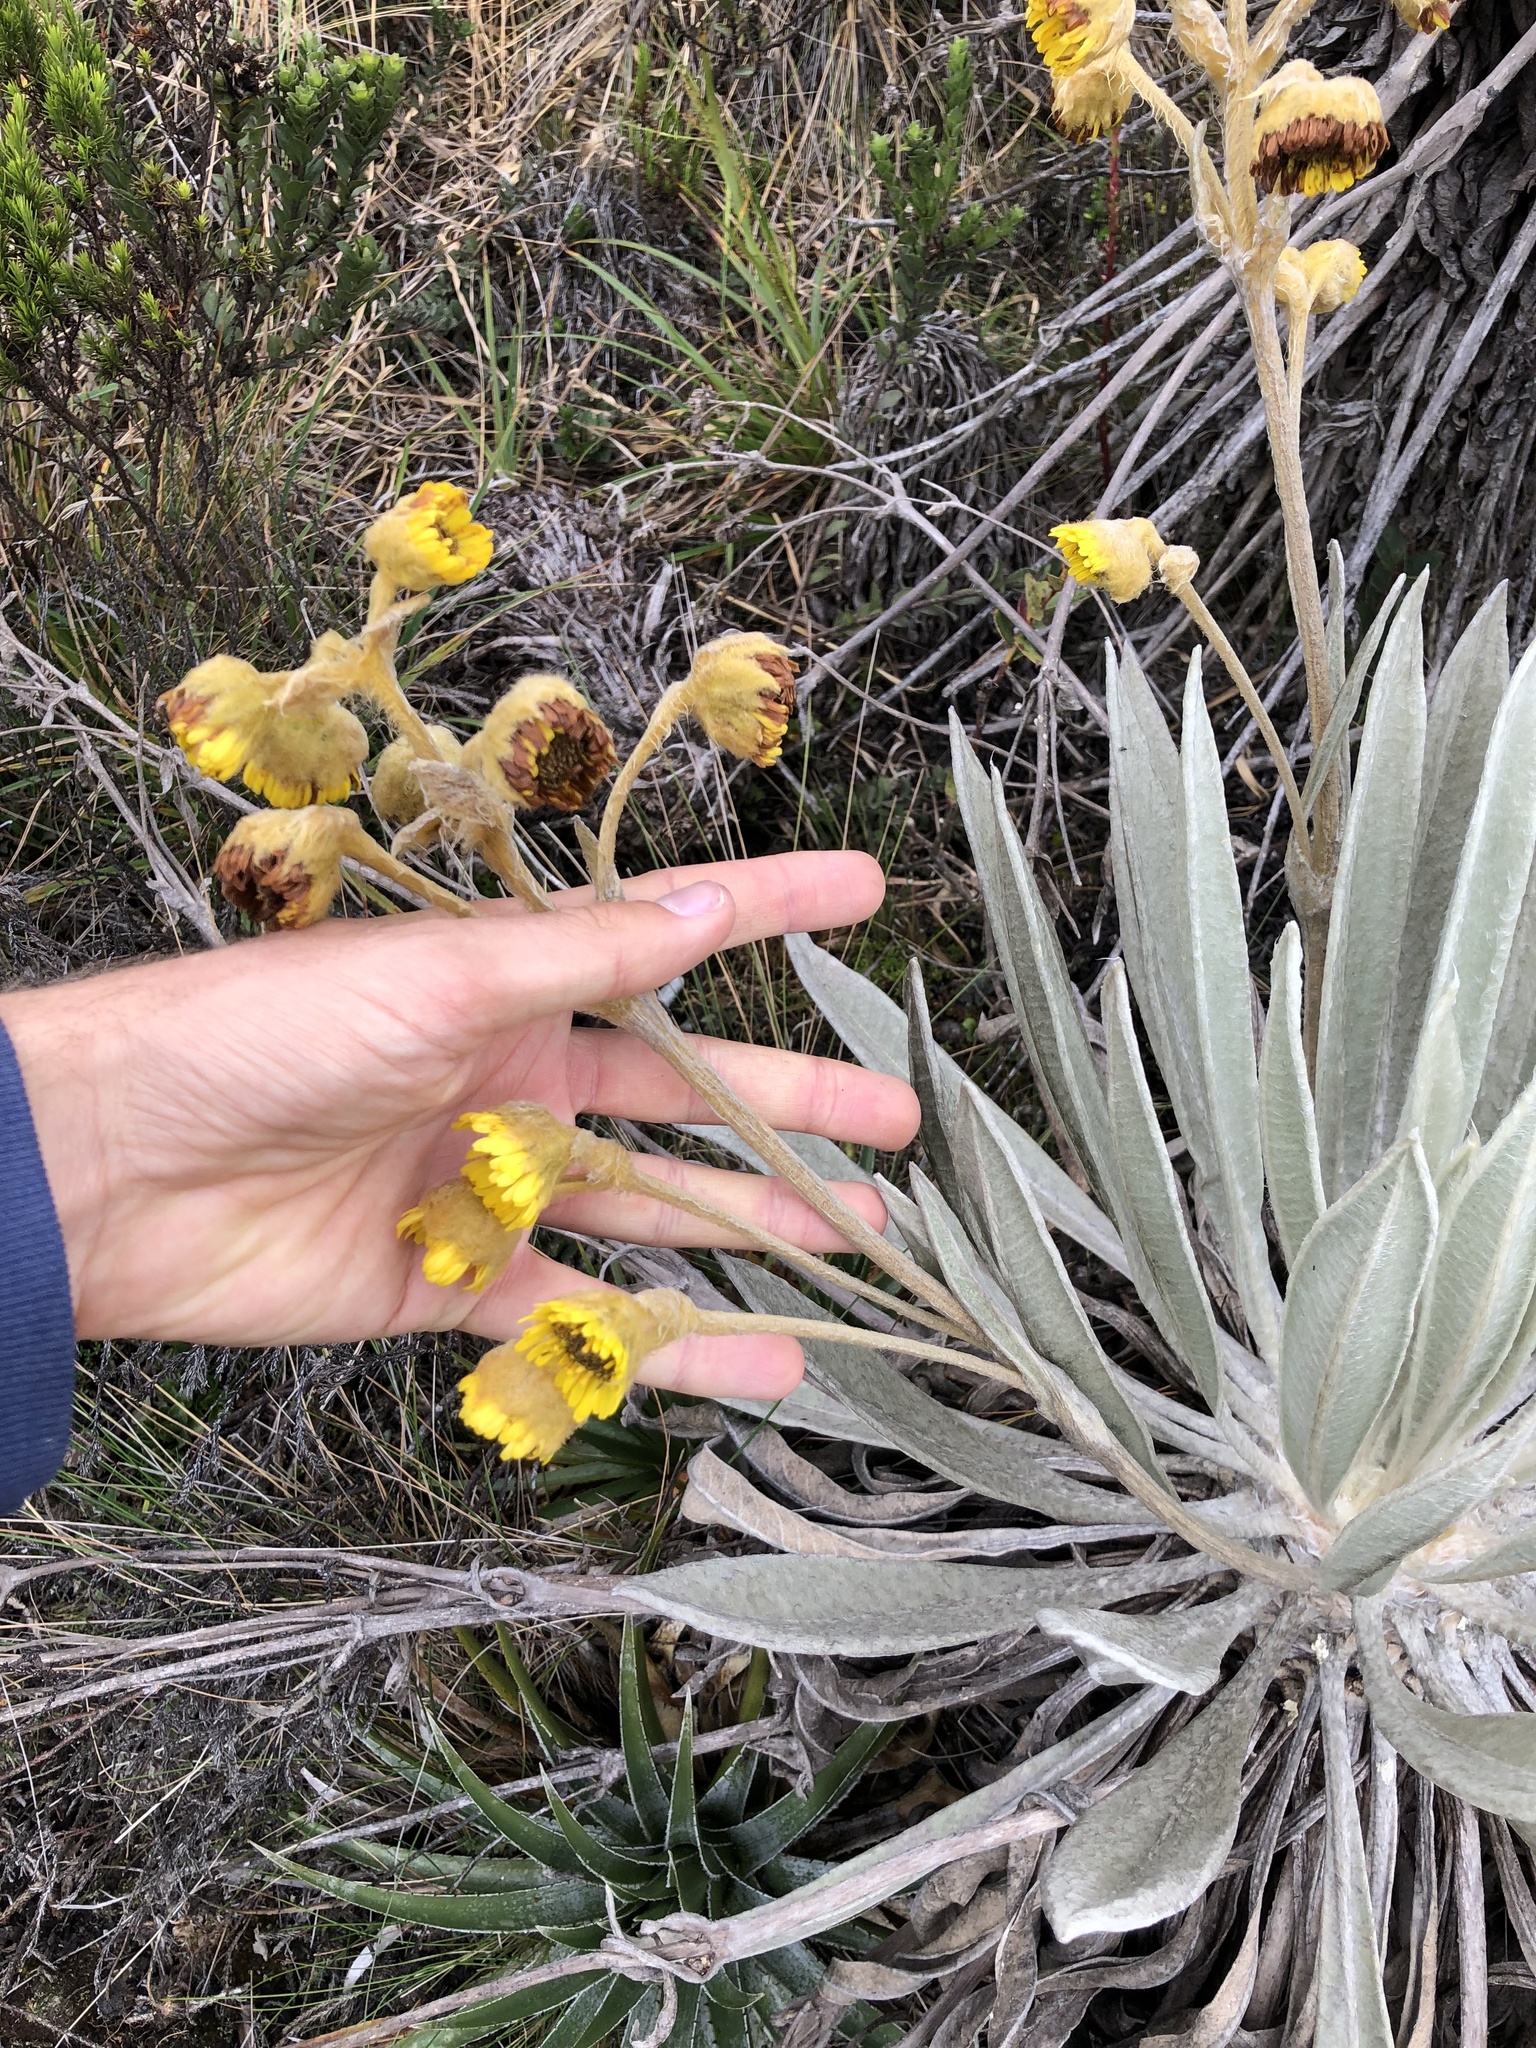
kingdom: Plantae
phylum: Tracheophyta
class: Magnoliopsida
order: Asterales
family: Asteraceae
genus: Espeletia
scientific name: Espeletia grandiflora
